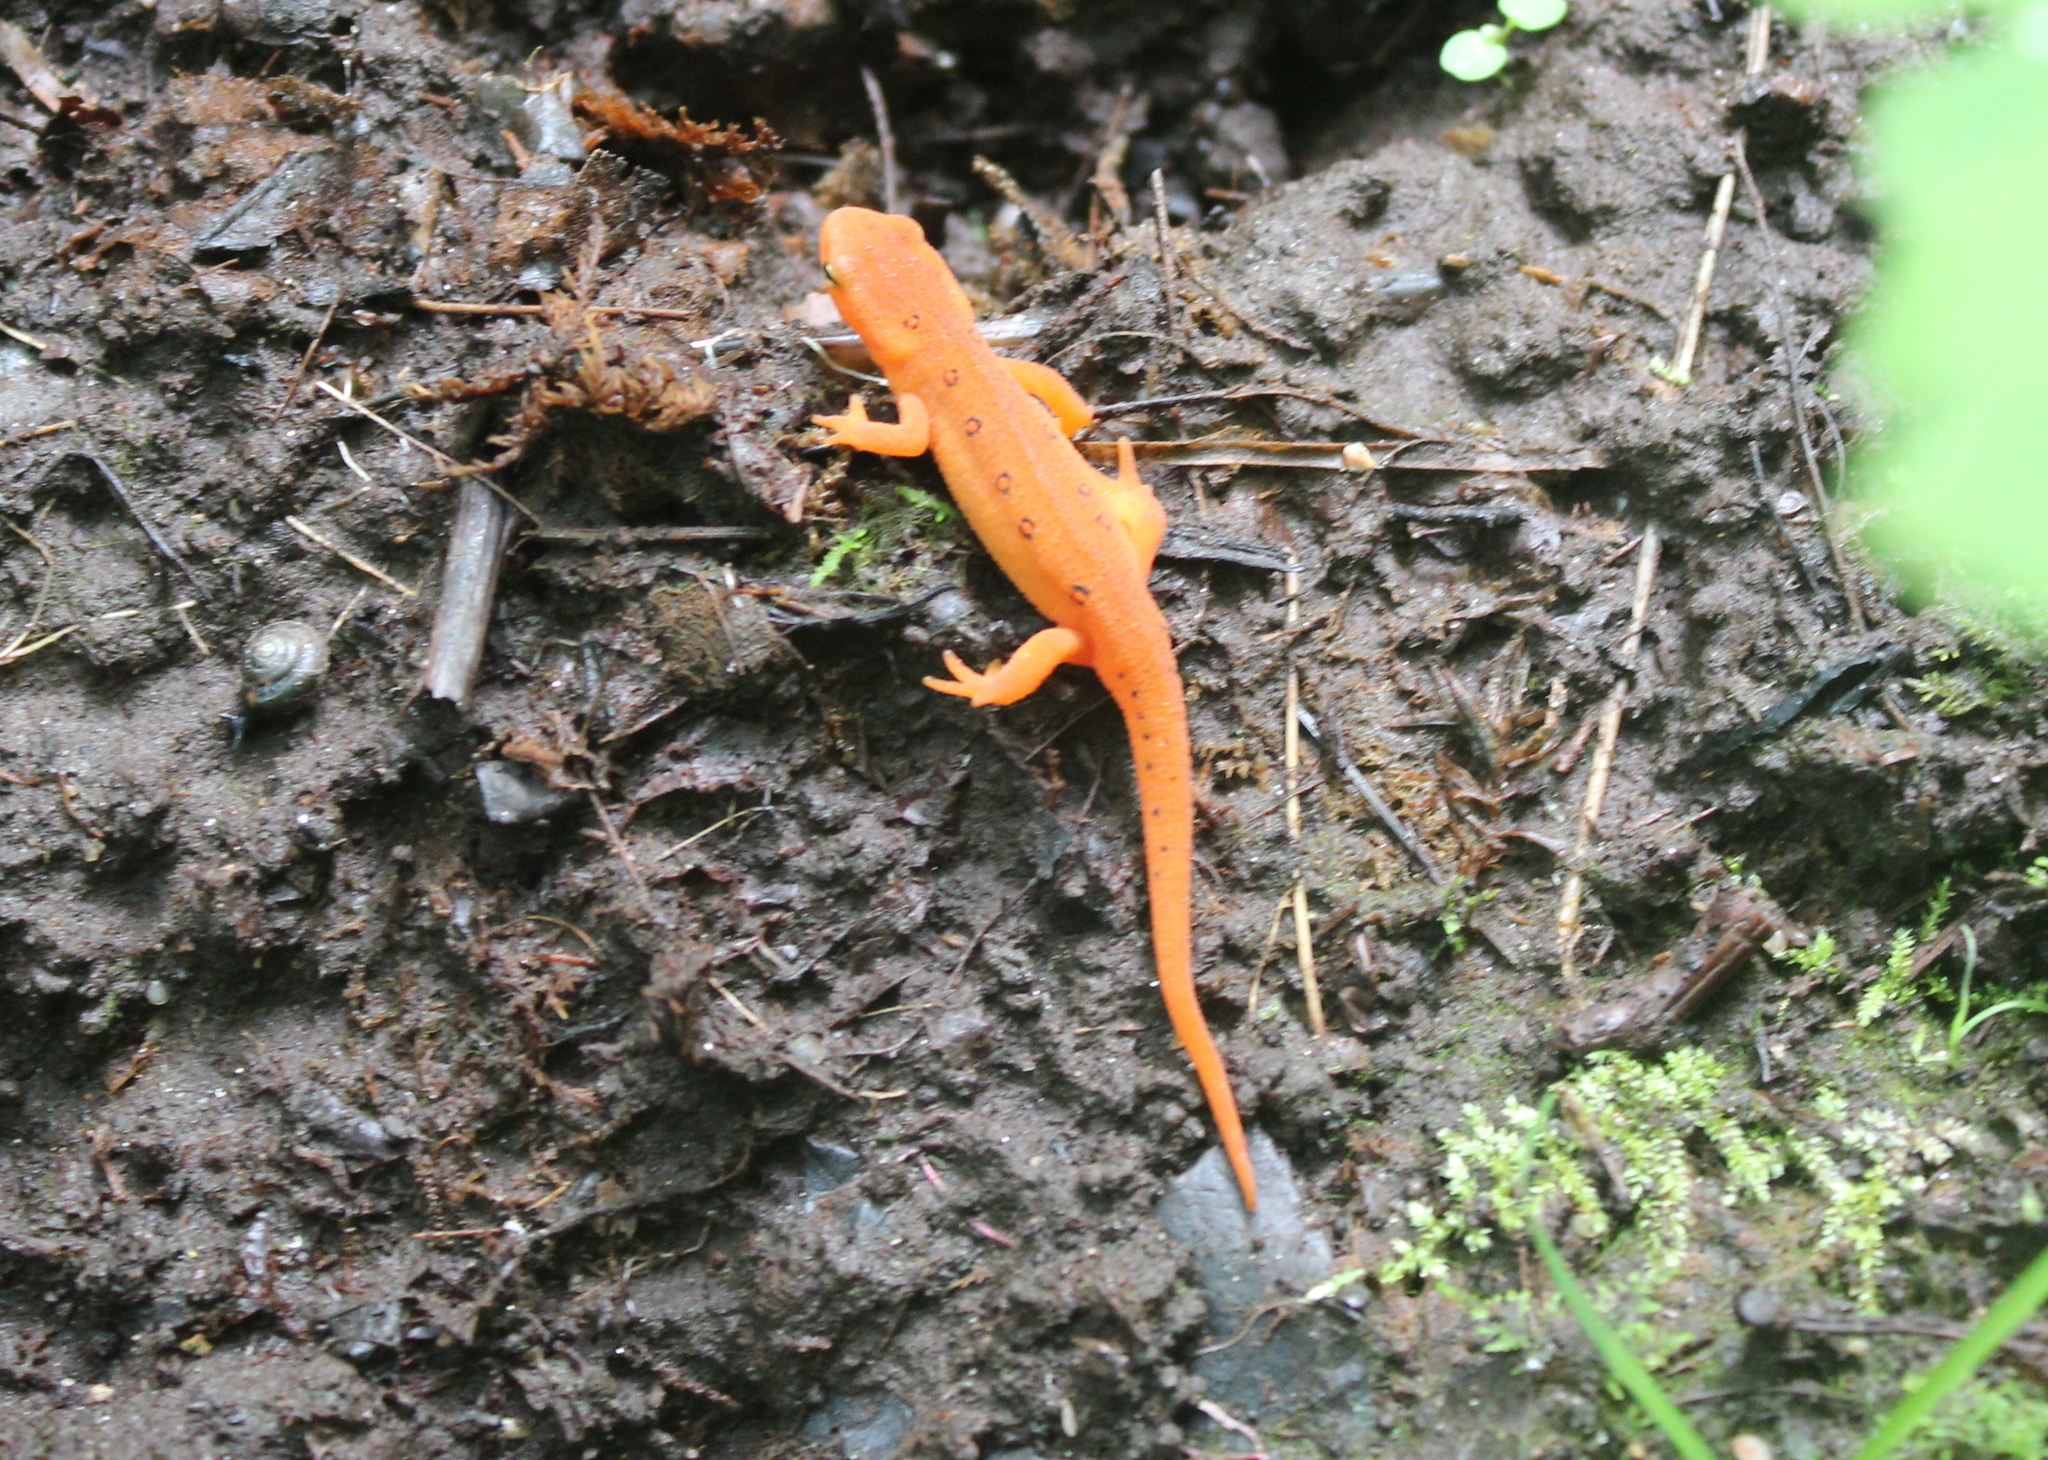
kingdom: Animalia
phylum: Chordata
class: Amphibia
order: Caudata
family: Salamandridae
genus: Notophthalmus
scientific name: Notophthalmus viridescens
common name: Eastern newt
